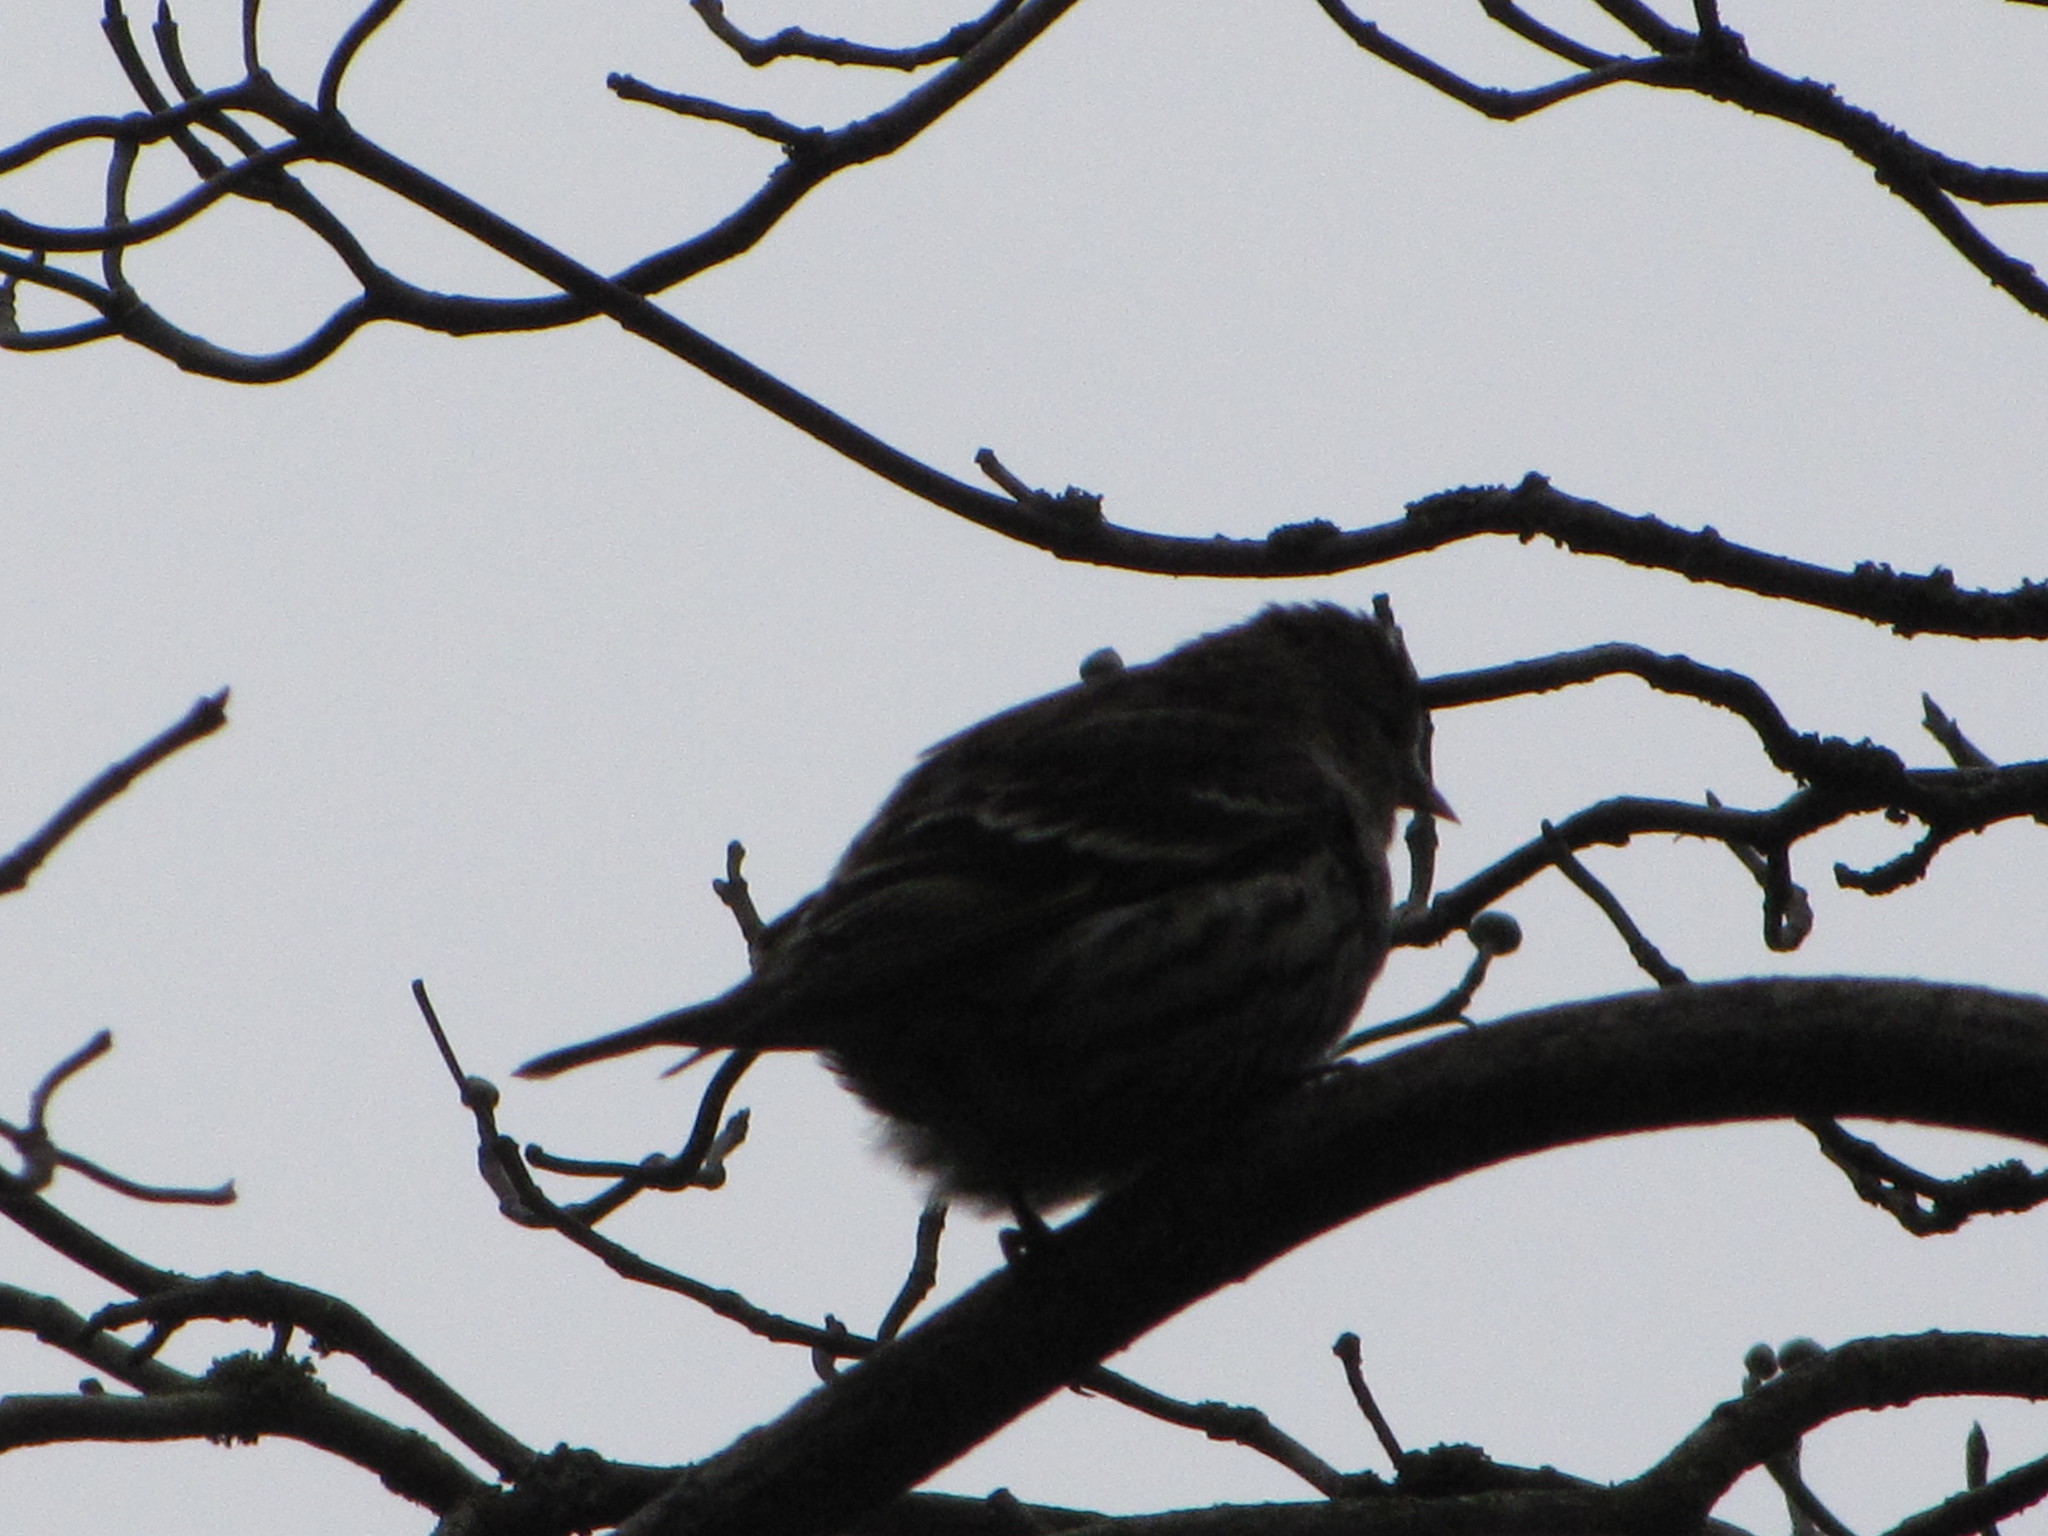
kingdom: Animalia
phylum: Chordata
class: Aves
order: Passeriformes
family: Fringillidae
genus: Spinus
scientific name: Spinus pinus
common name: Pine siskin
